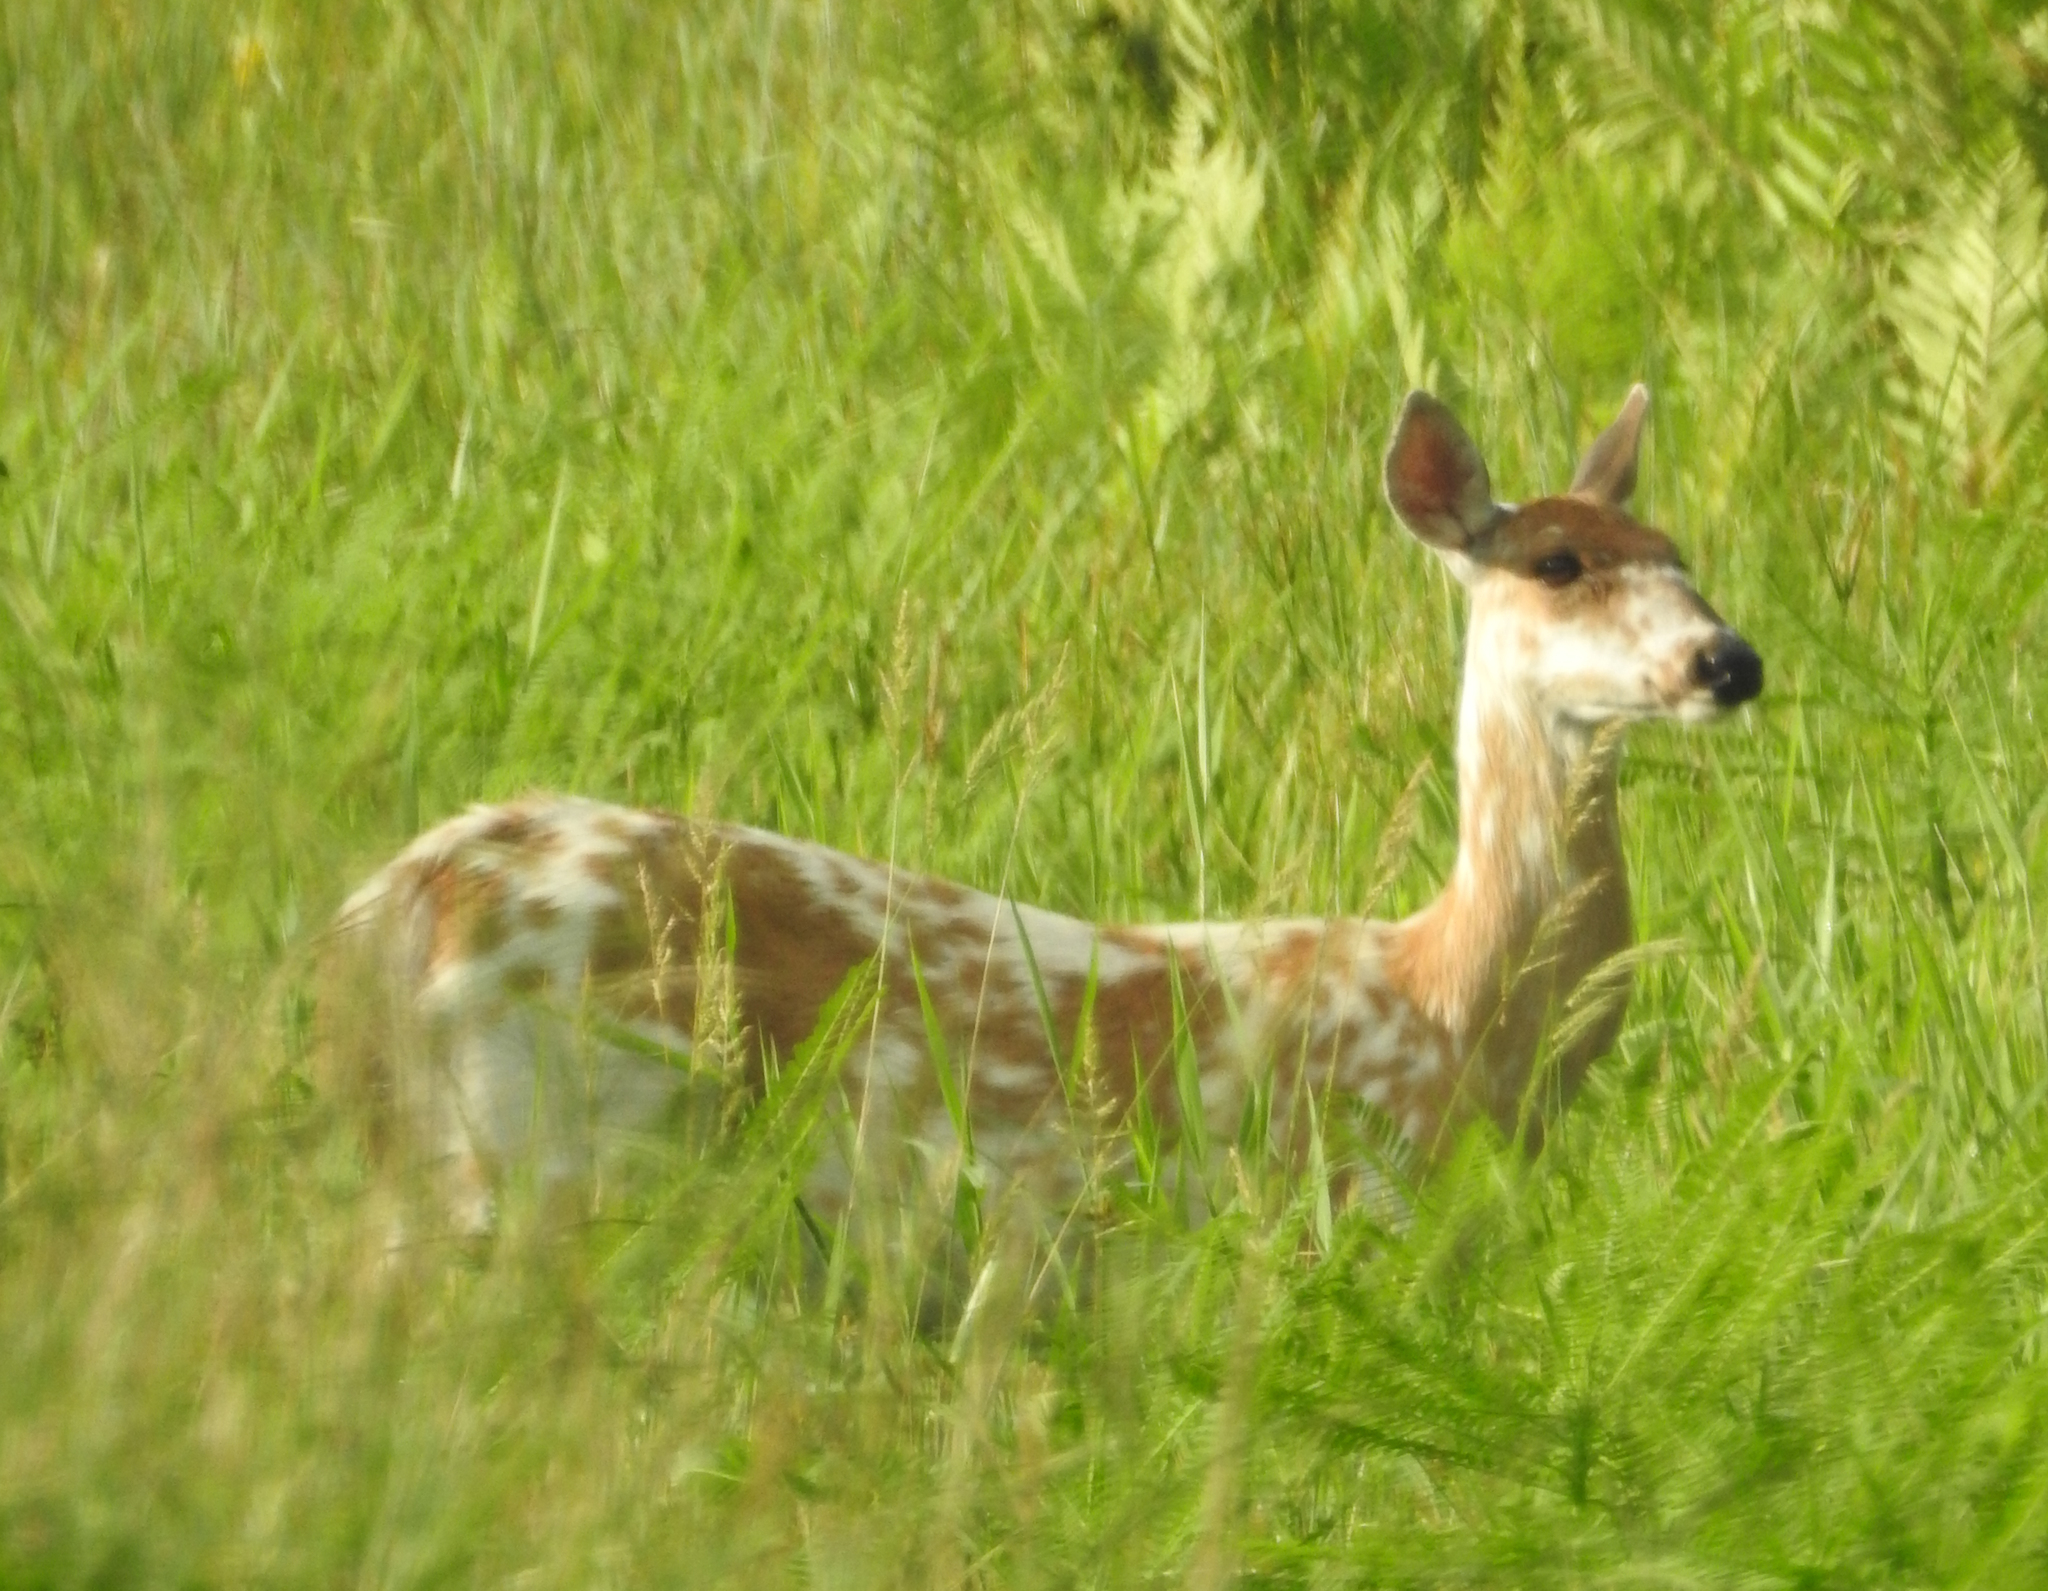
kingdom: Animalia
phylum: Chordata
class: Mammalia
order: Artiodactyla
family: Cervidae
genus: Odocoileus
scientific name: Odocoileus virginianus
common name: White-tailed deer
